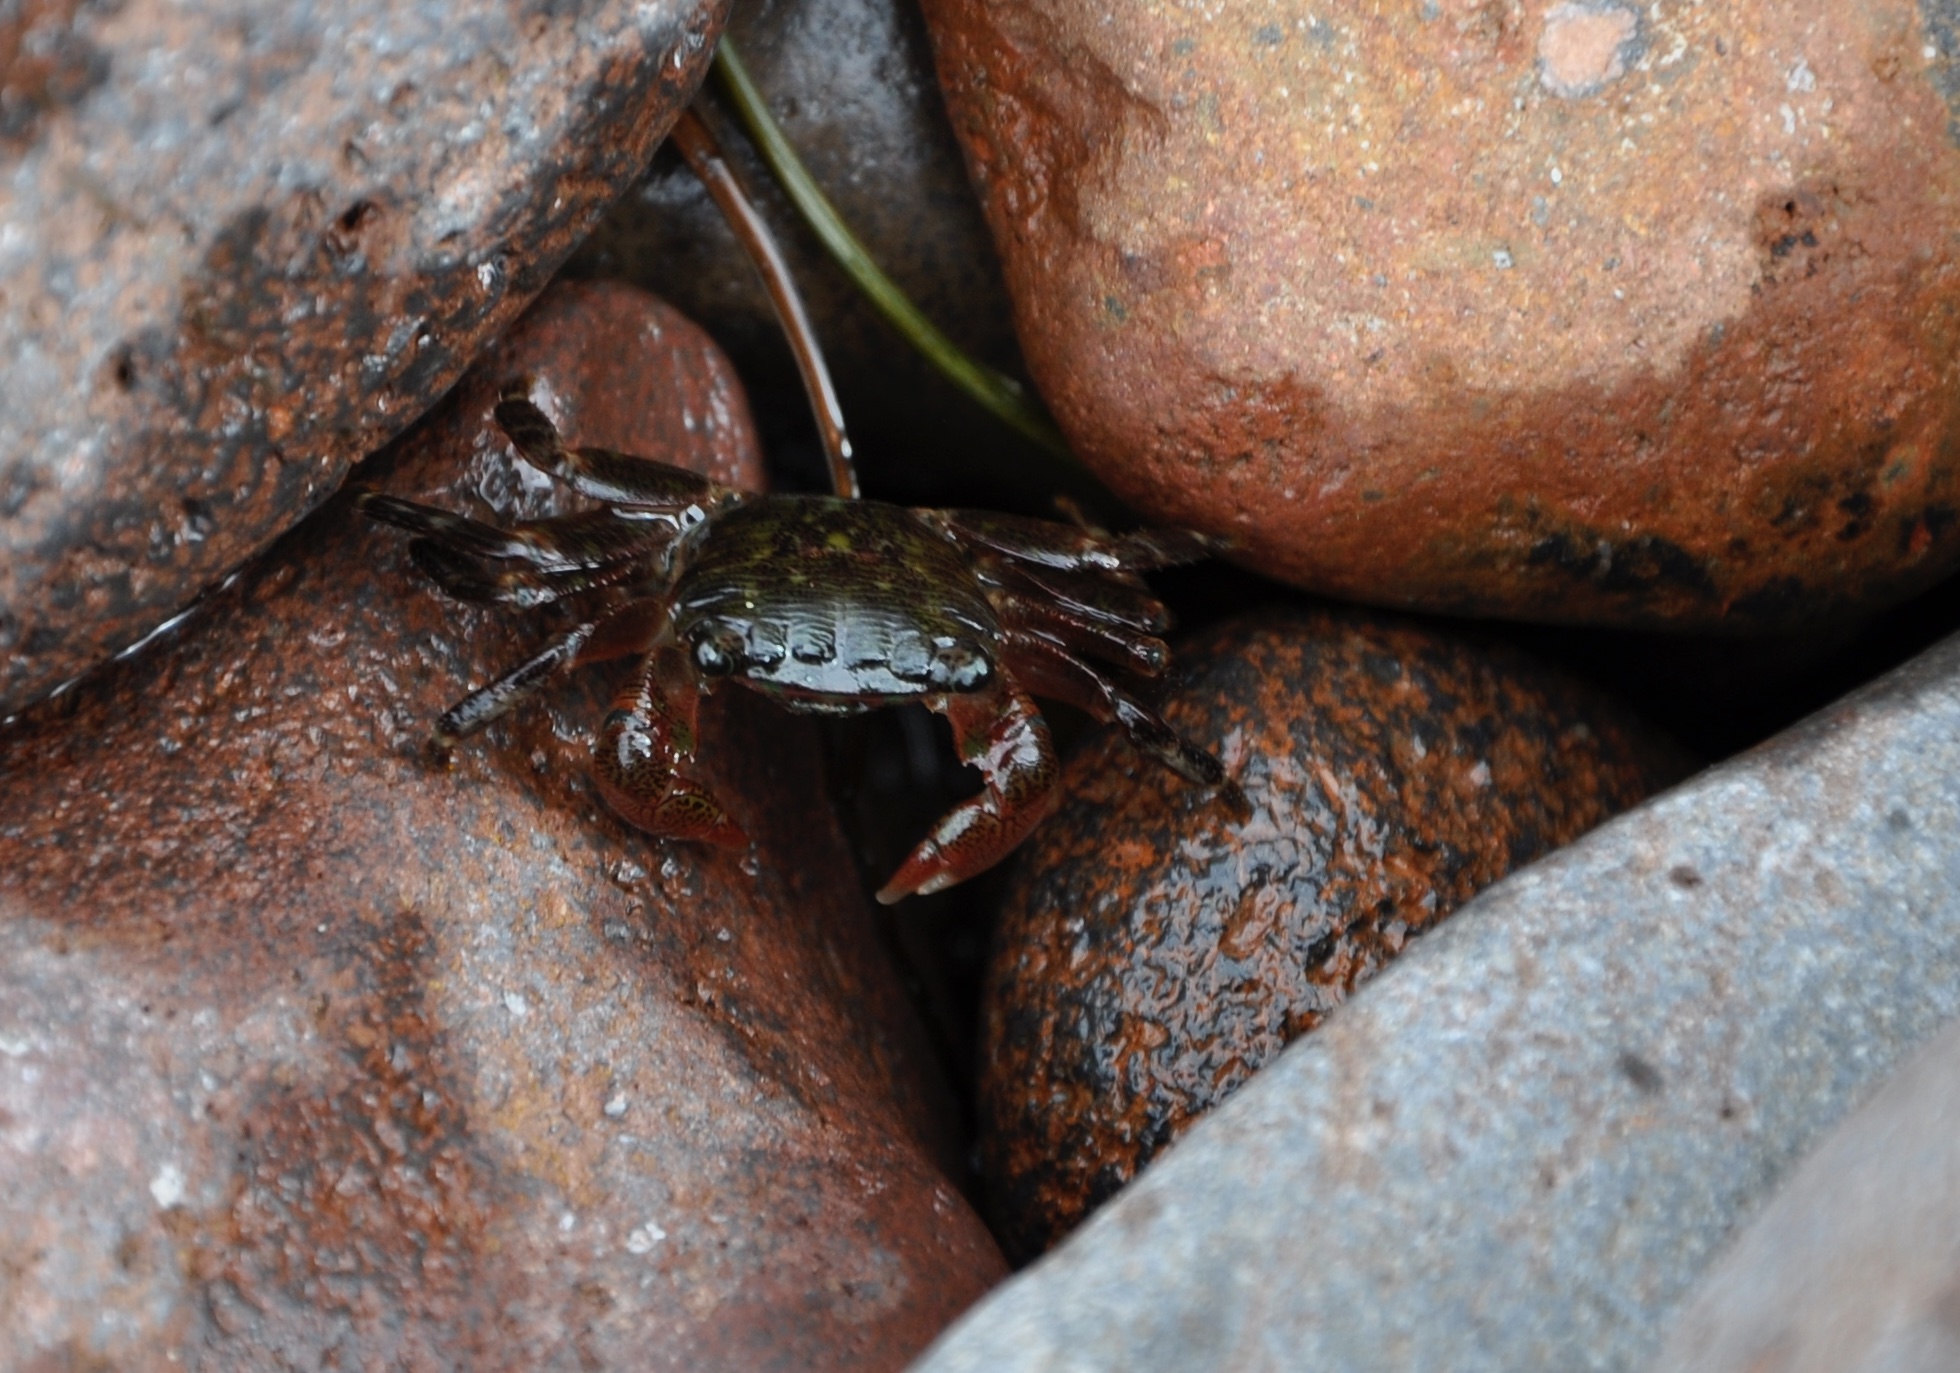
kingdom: Animalia
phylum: Arthropoda
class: Malacostraca
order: Decapoda
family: Grapsidae
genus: Pachygrapsus
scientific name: Pachygrapsus crassipes
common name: Striped shore crab
